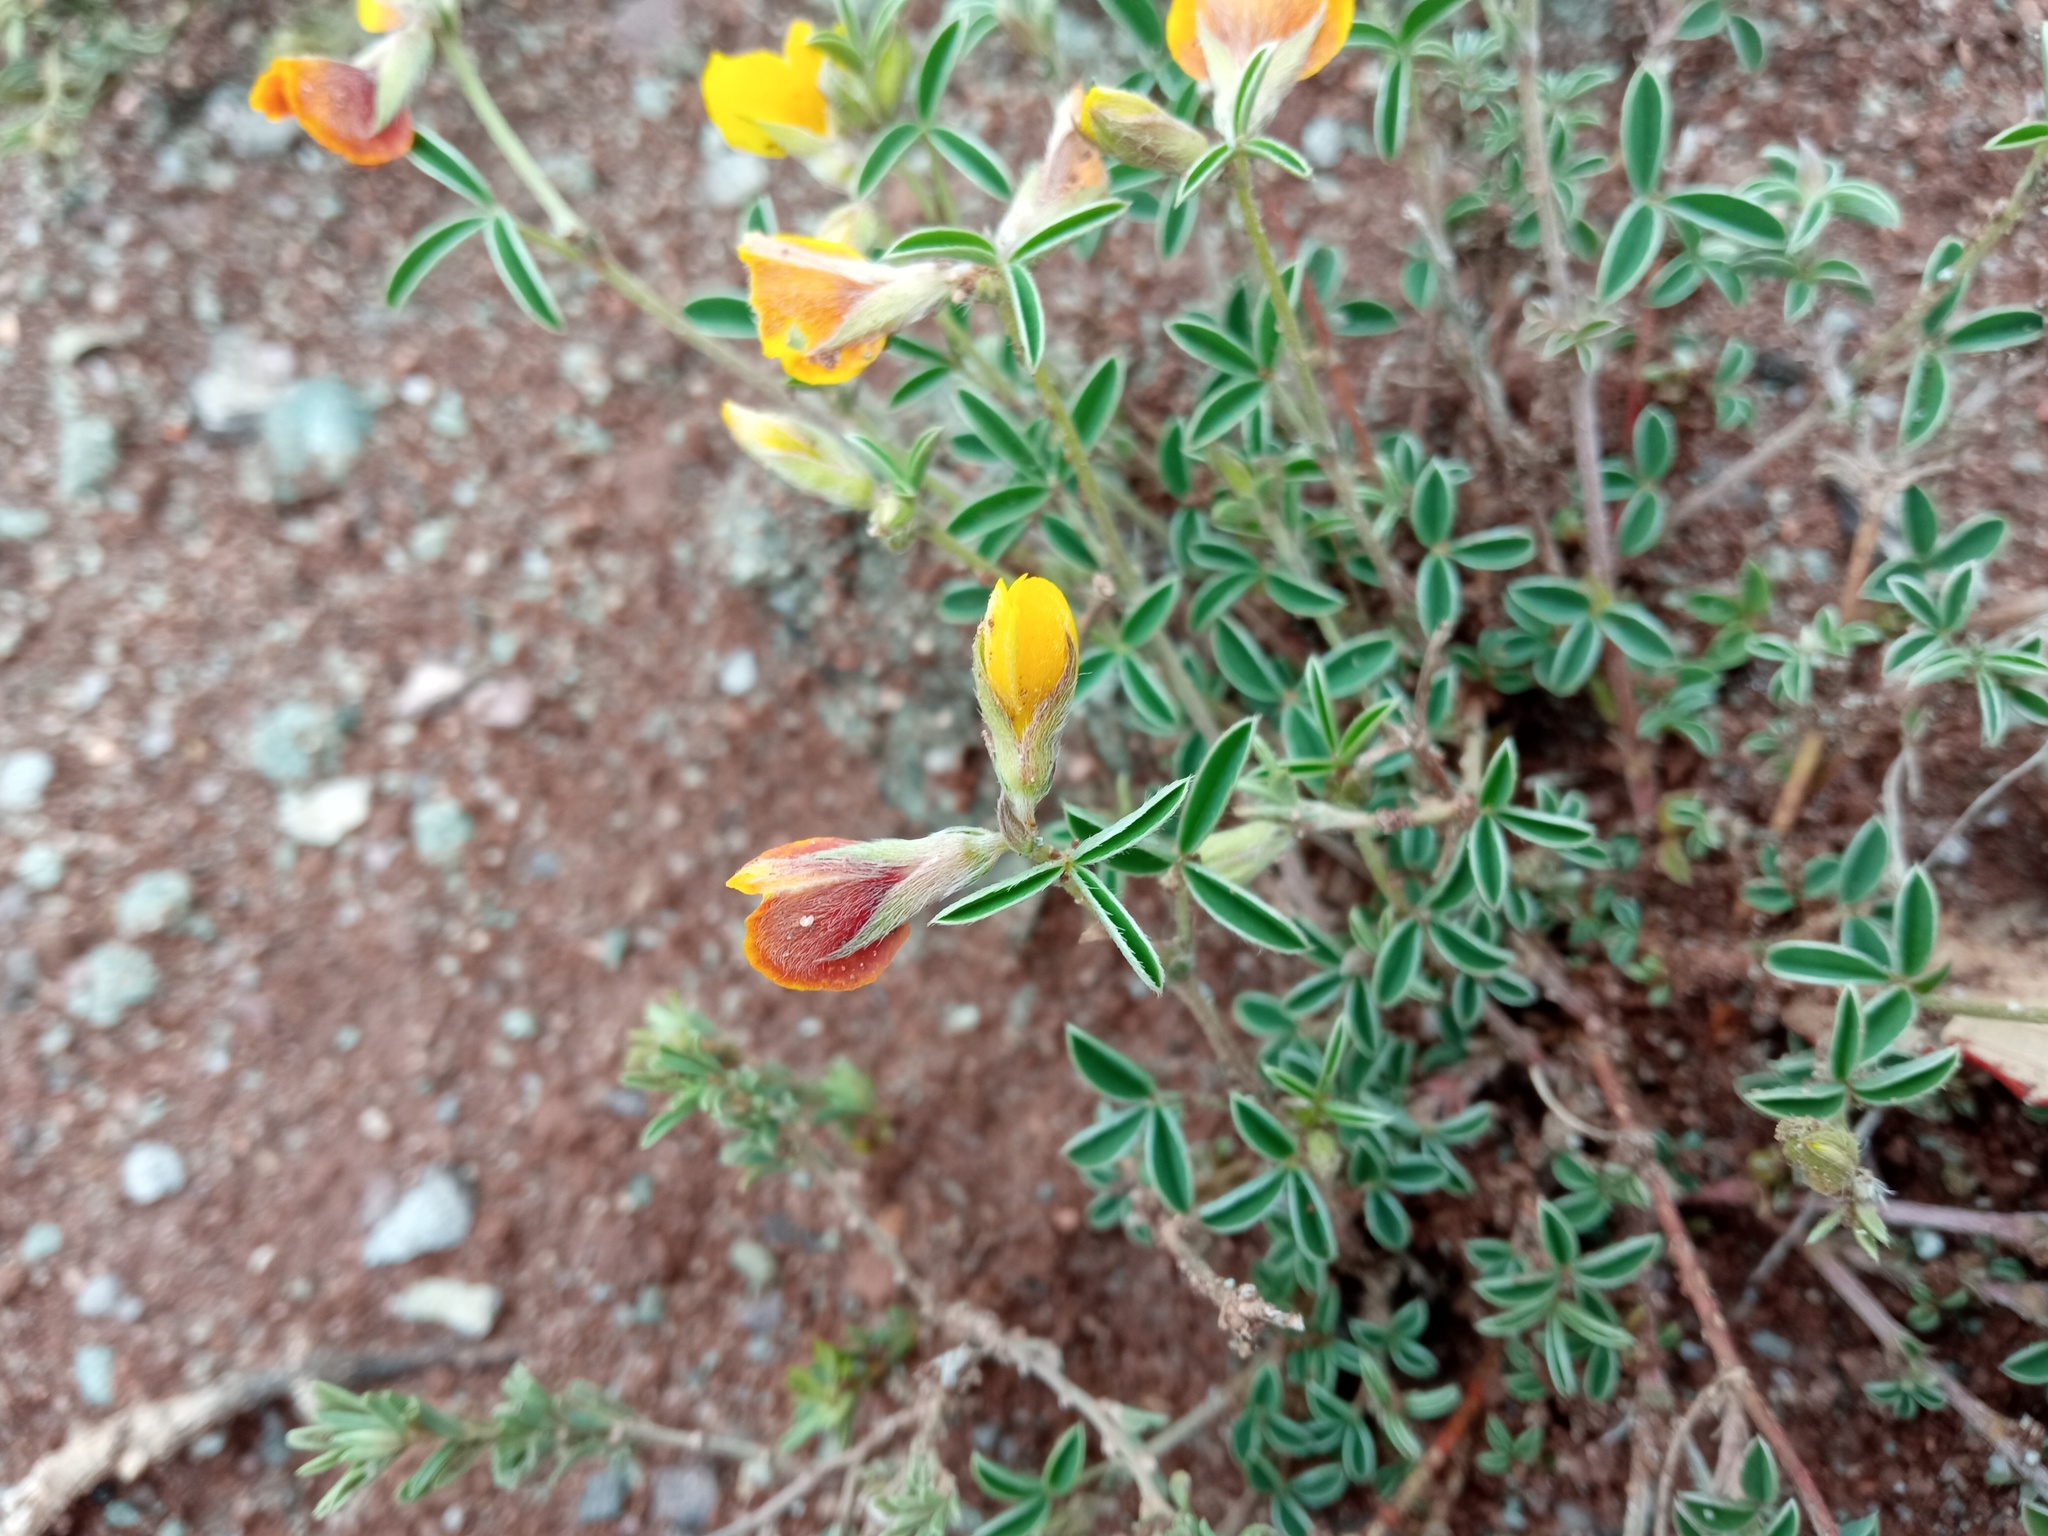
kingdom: Plantae
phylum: Tracheophyta
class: Magnoliopsida
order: Fabales
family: Fabaceae
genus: Argyrolobium
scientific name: Argyrolobium zanonii
